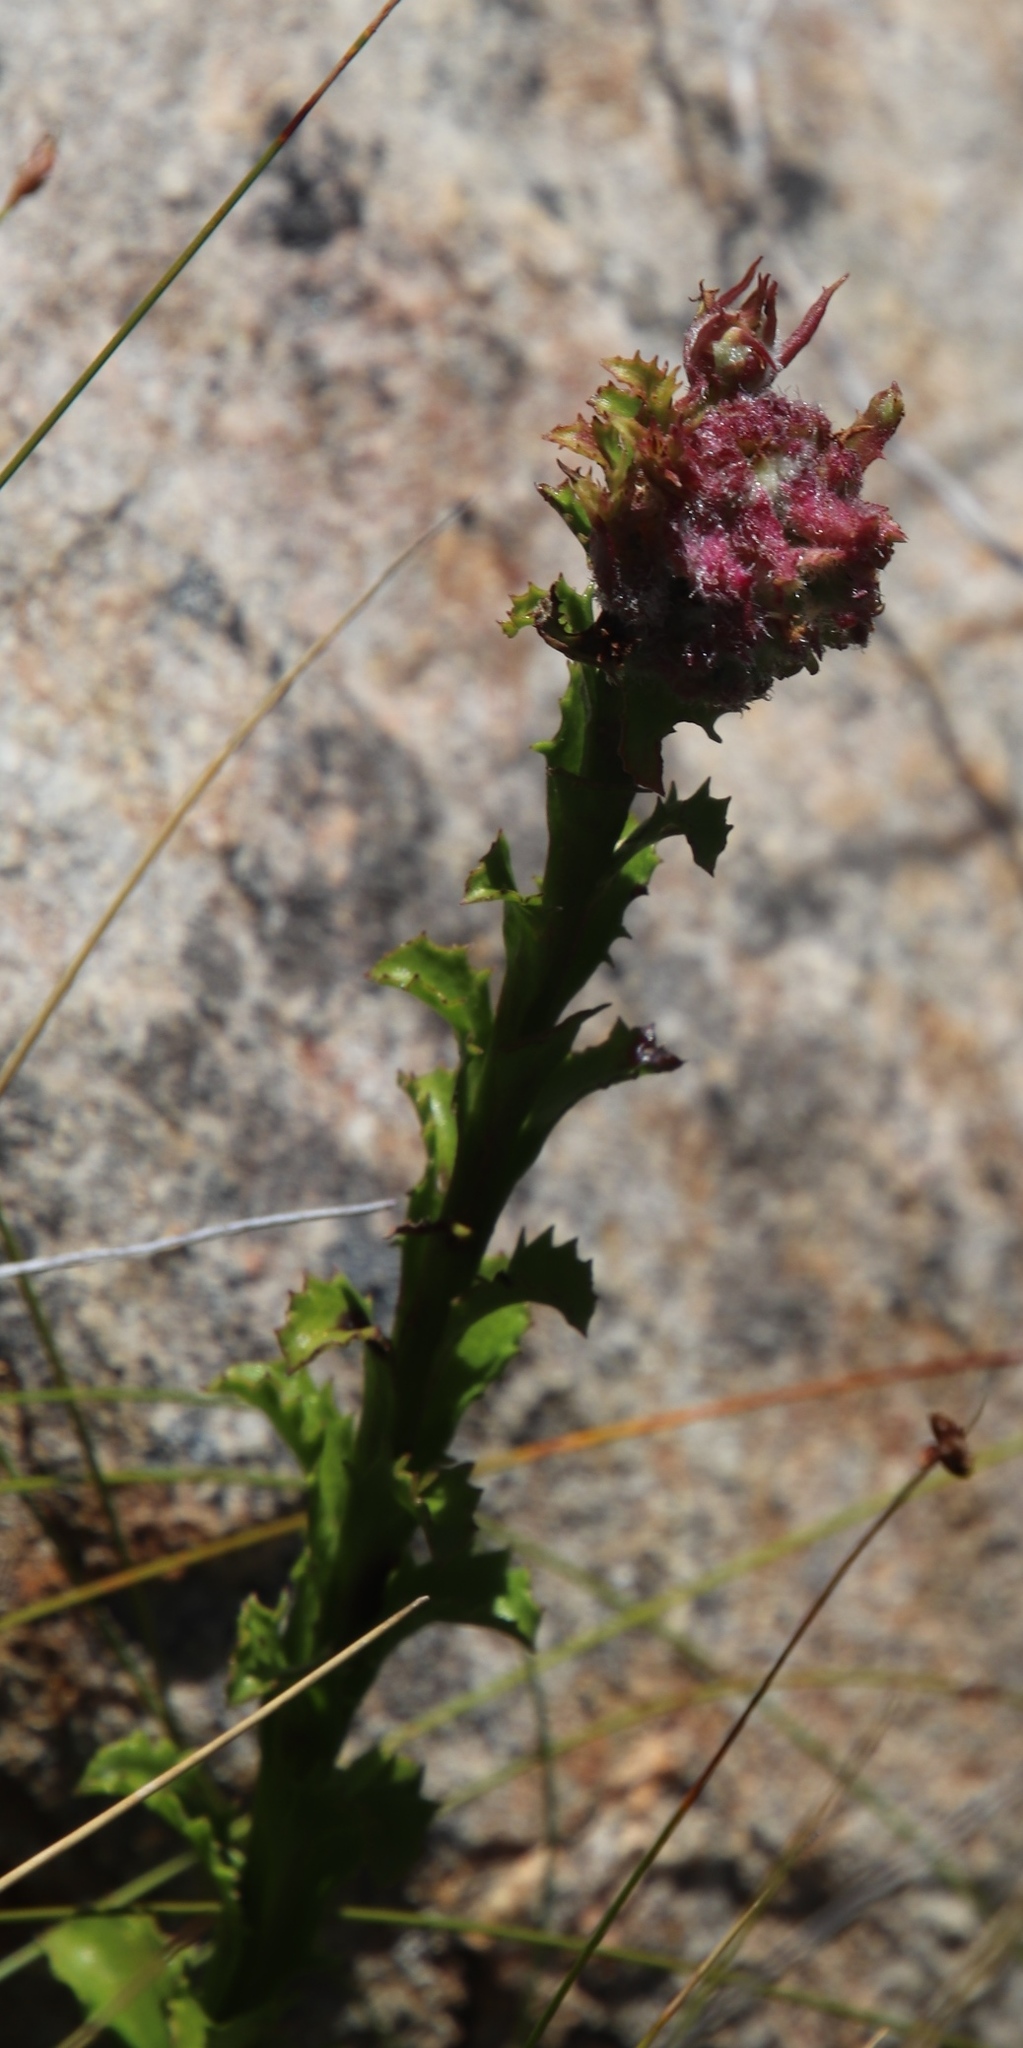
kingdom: Plantae
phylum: Tracheophyta
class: Magnoliopsida
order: Lamiales
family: Scrophulariaceae
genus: Pseudoselago
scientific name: Pseudoselago serrata
